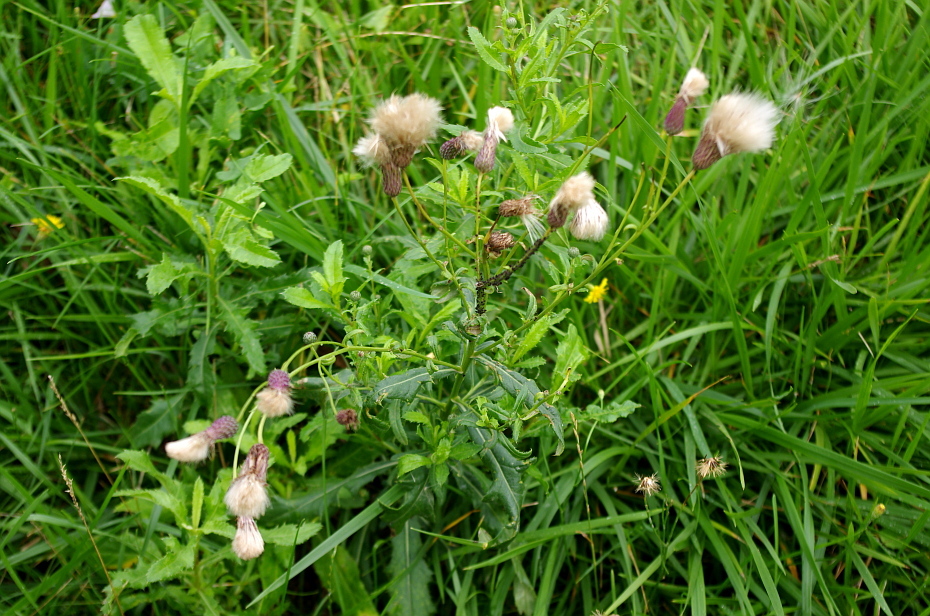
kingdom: Plantae
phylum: Tracheophyta
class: Magnoliopsida
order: Asterales
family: Asteraceae
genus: Cirsium
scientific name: Cirsium arvense
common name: Creeping thistle
